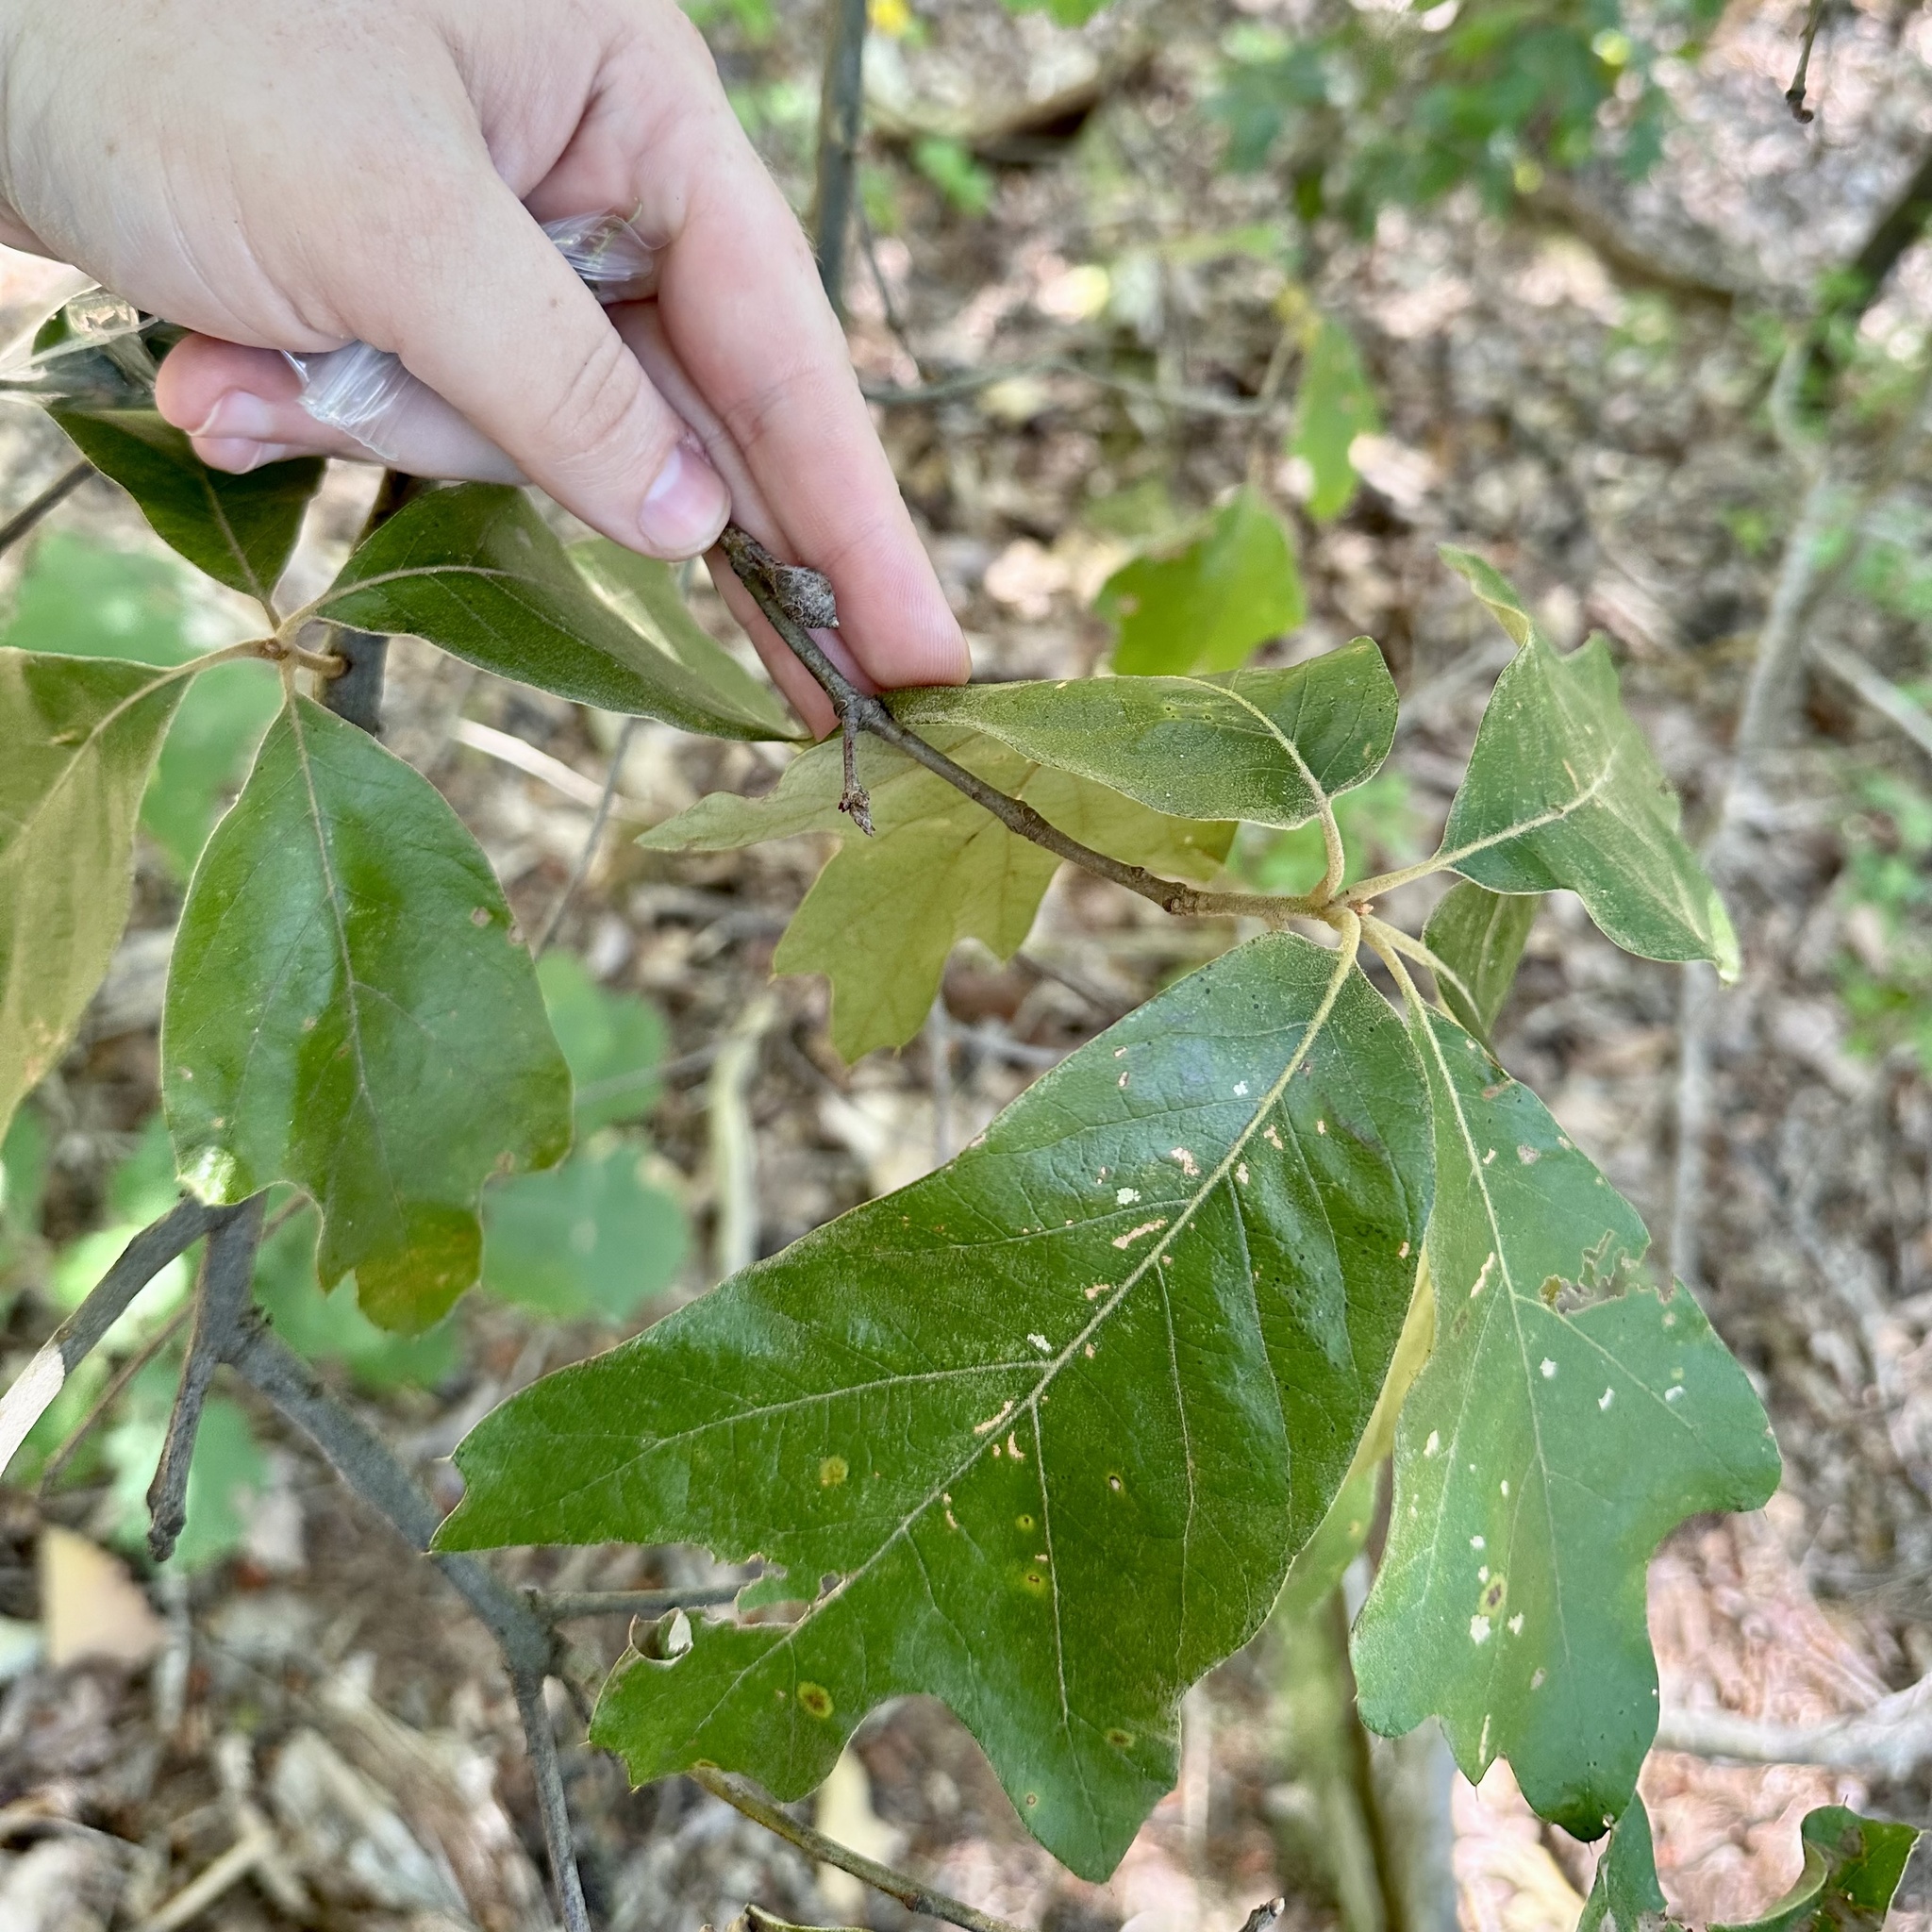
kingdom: Plantae
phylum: Tracheophyta
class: Magnoliopsida
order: Fagales
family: Fagaceae
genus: Quercus
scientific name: Quercus falcata
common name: Southern red oak
